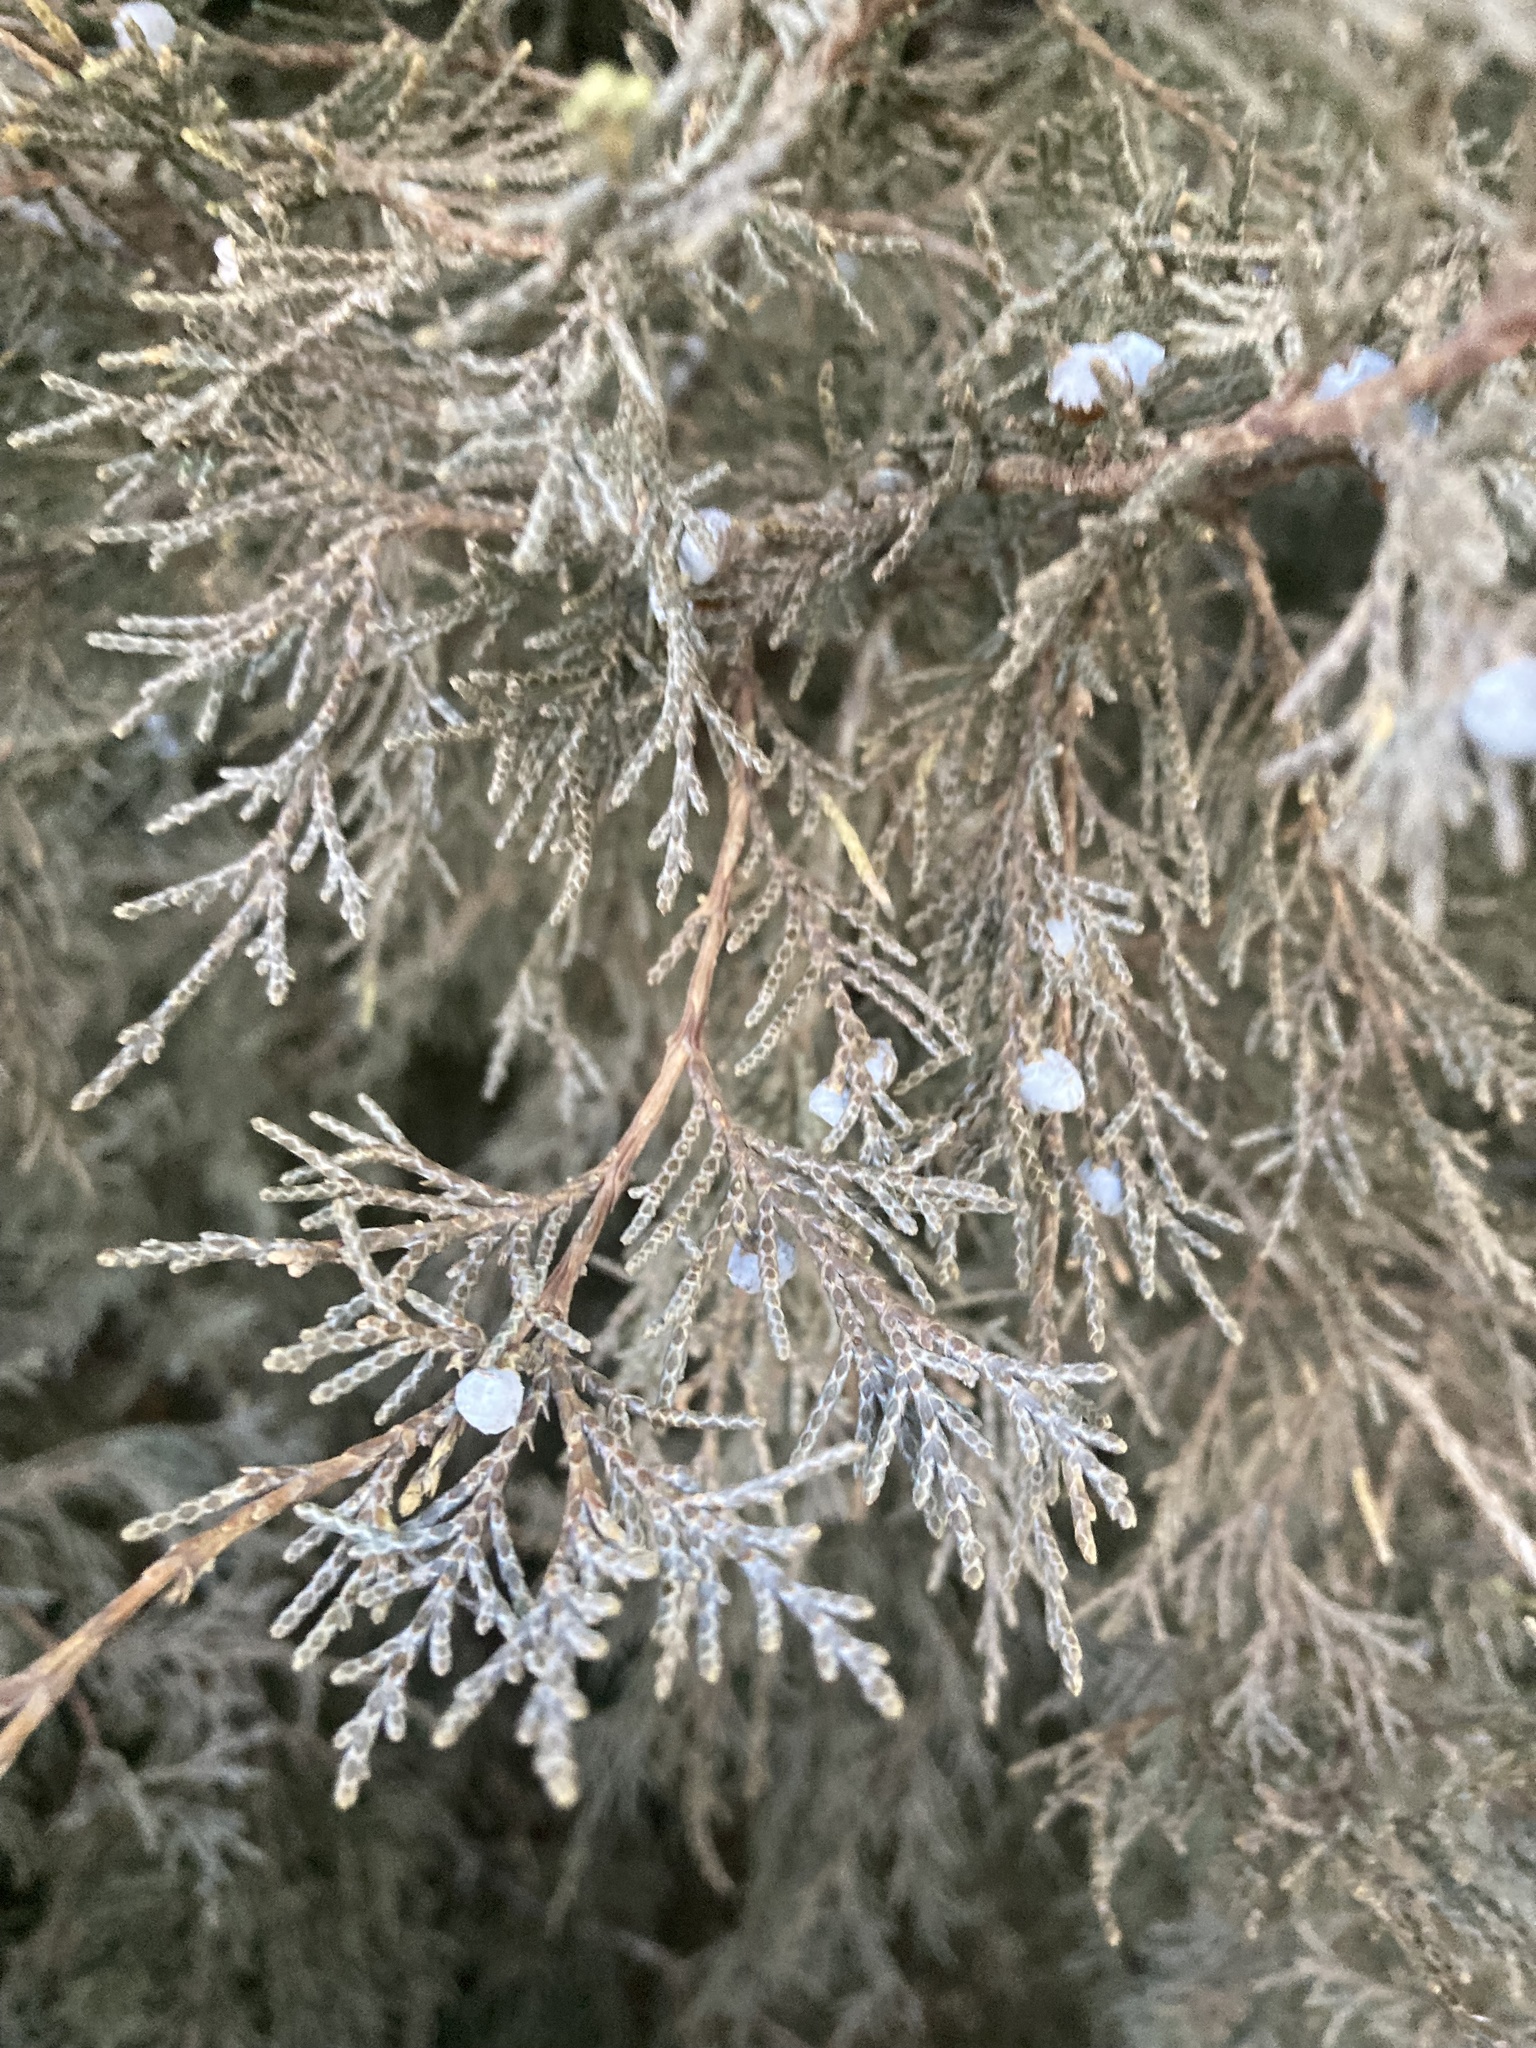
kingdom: Plantae
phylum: Tracheophyta
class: Pinopsida
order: Pinales
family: Cupressaceae
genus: Juniperus
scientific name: Juniperus scopulorum
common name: Rocky mountain juniper
